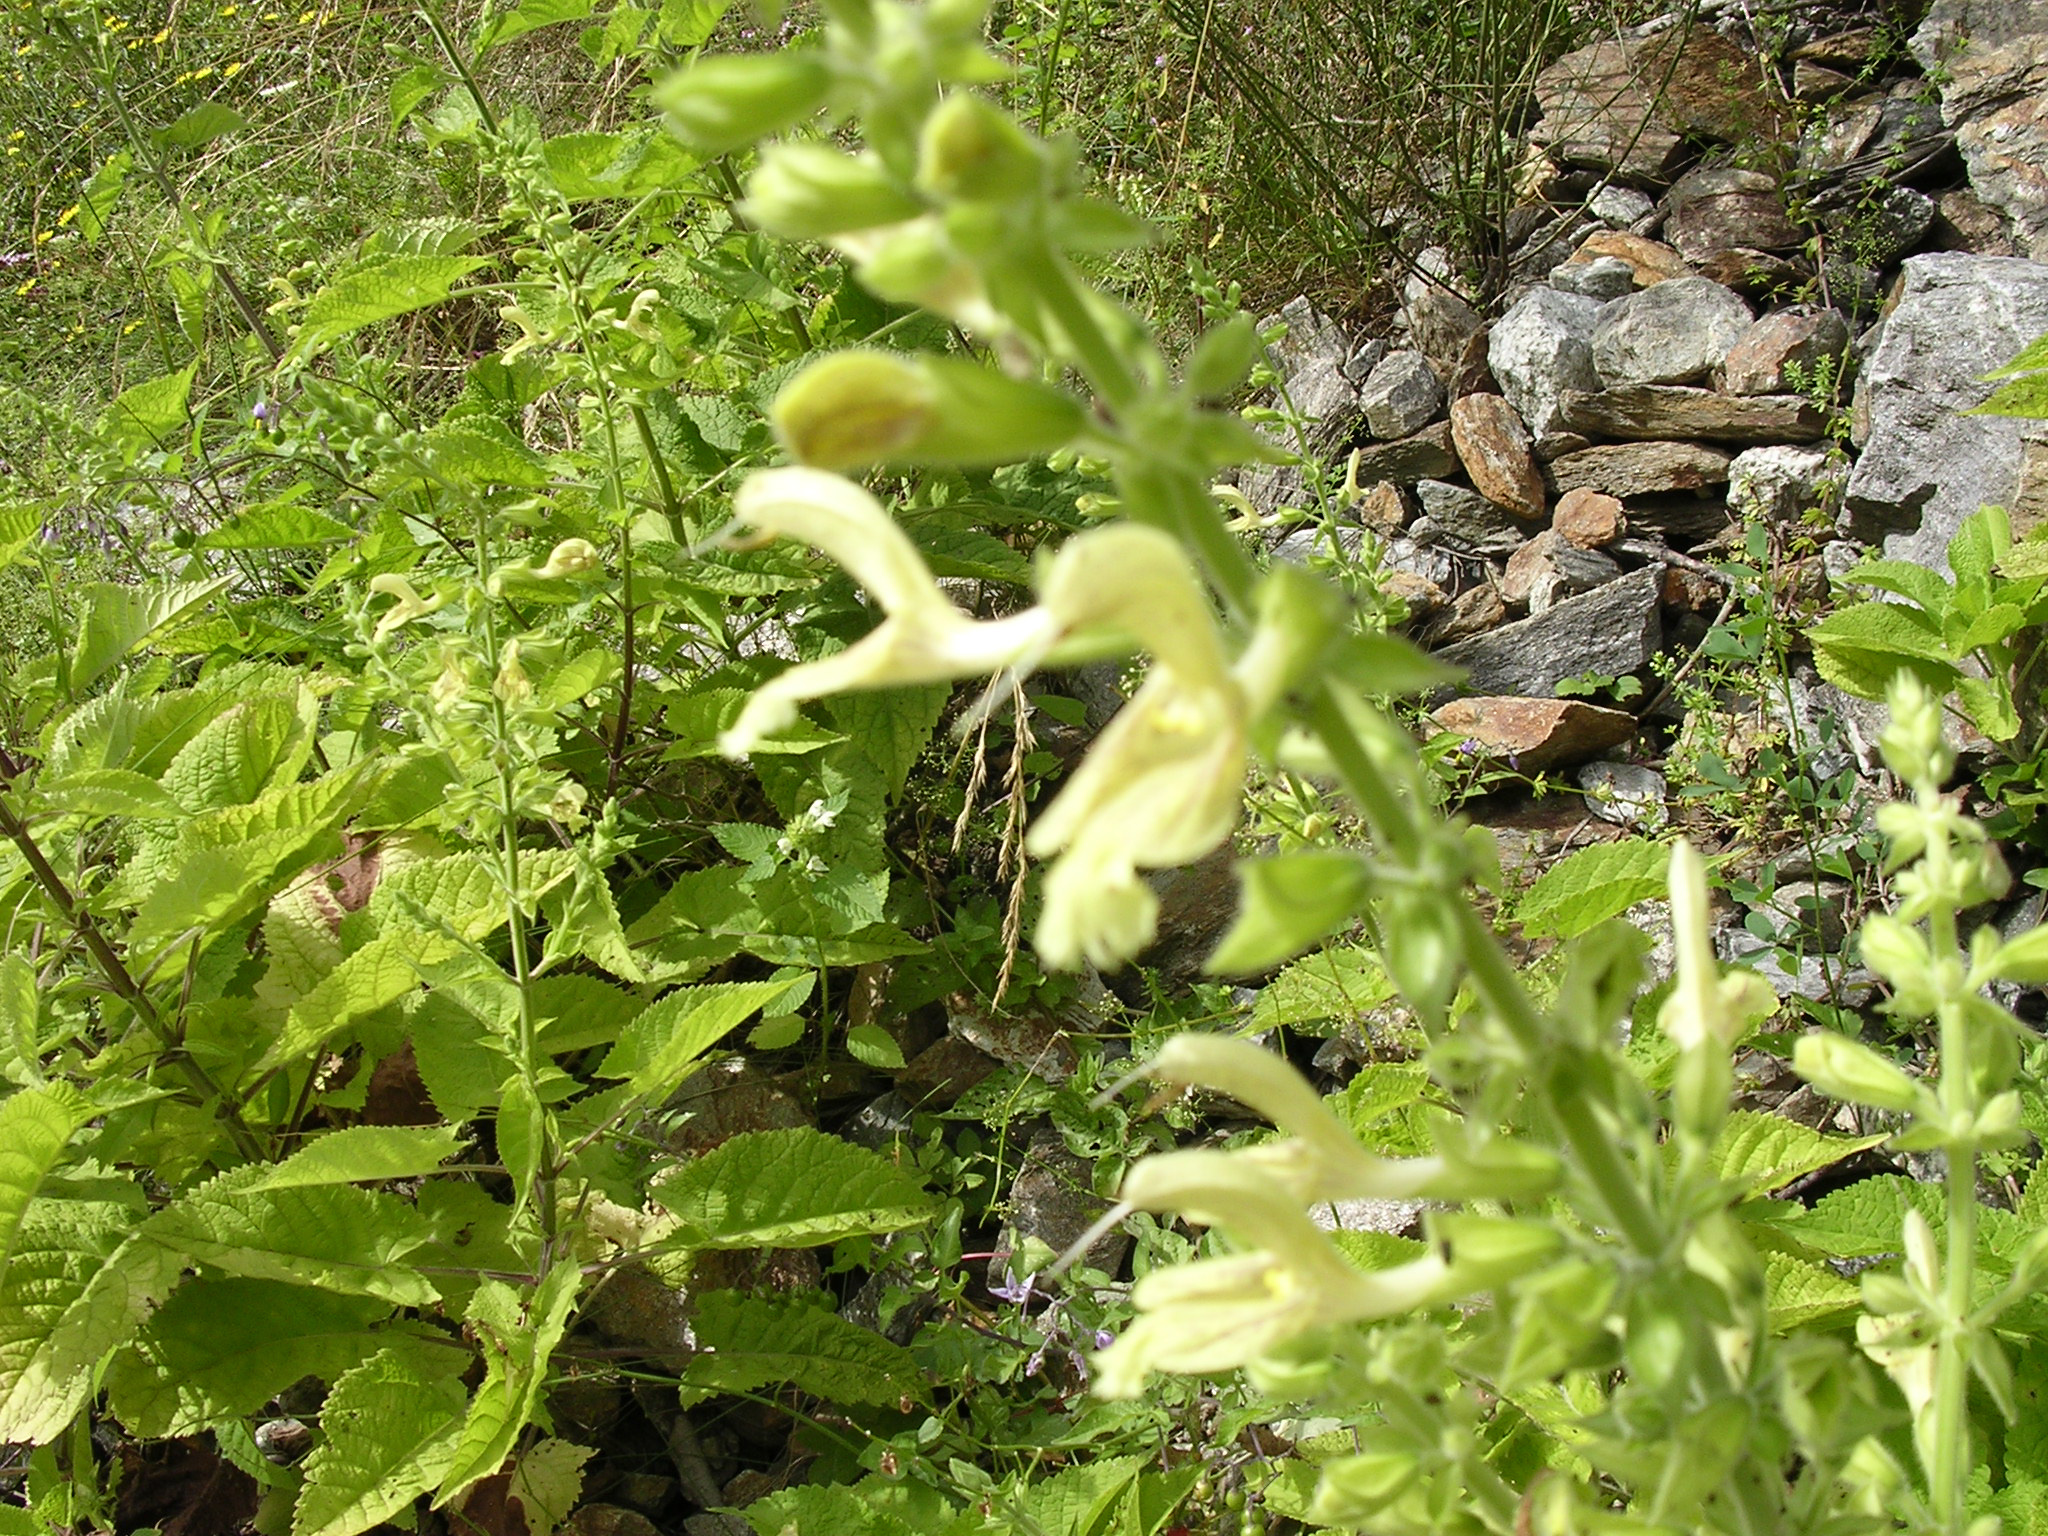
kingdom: Plantae
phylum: Tracheophyta
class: Magnoliopsida
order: Lamiales
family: Lamiaceae
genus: Salvia
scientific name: Salvia glutinosa
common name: Sticky clary
